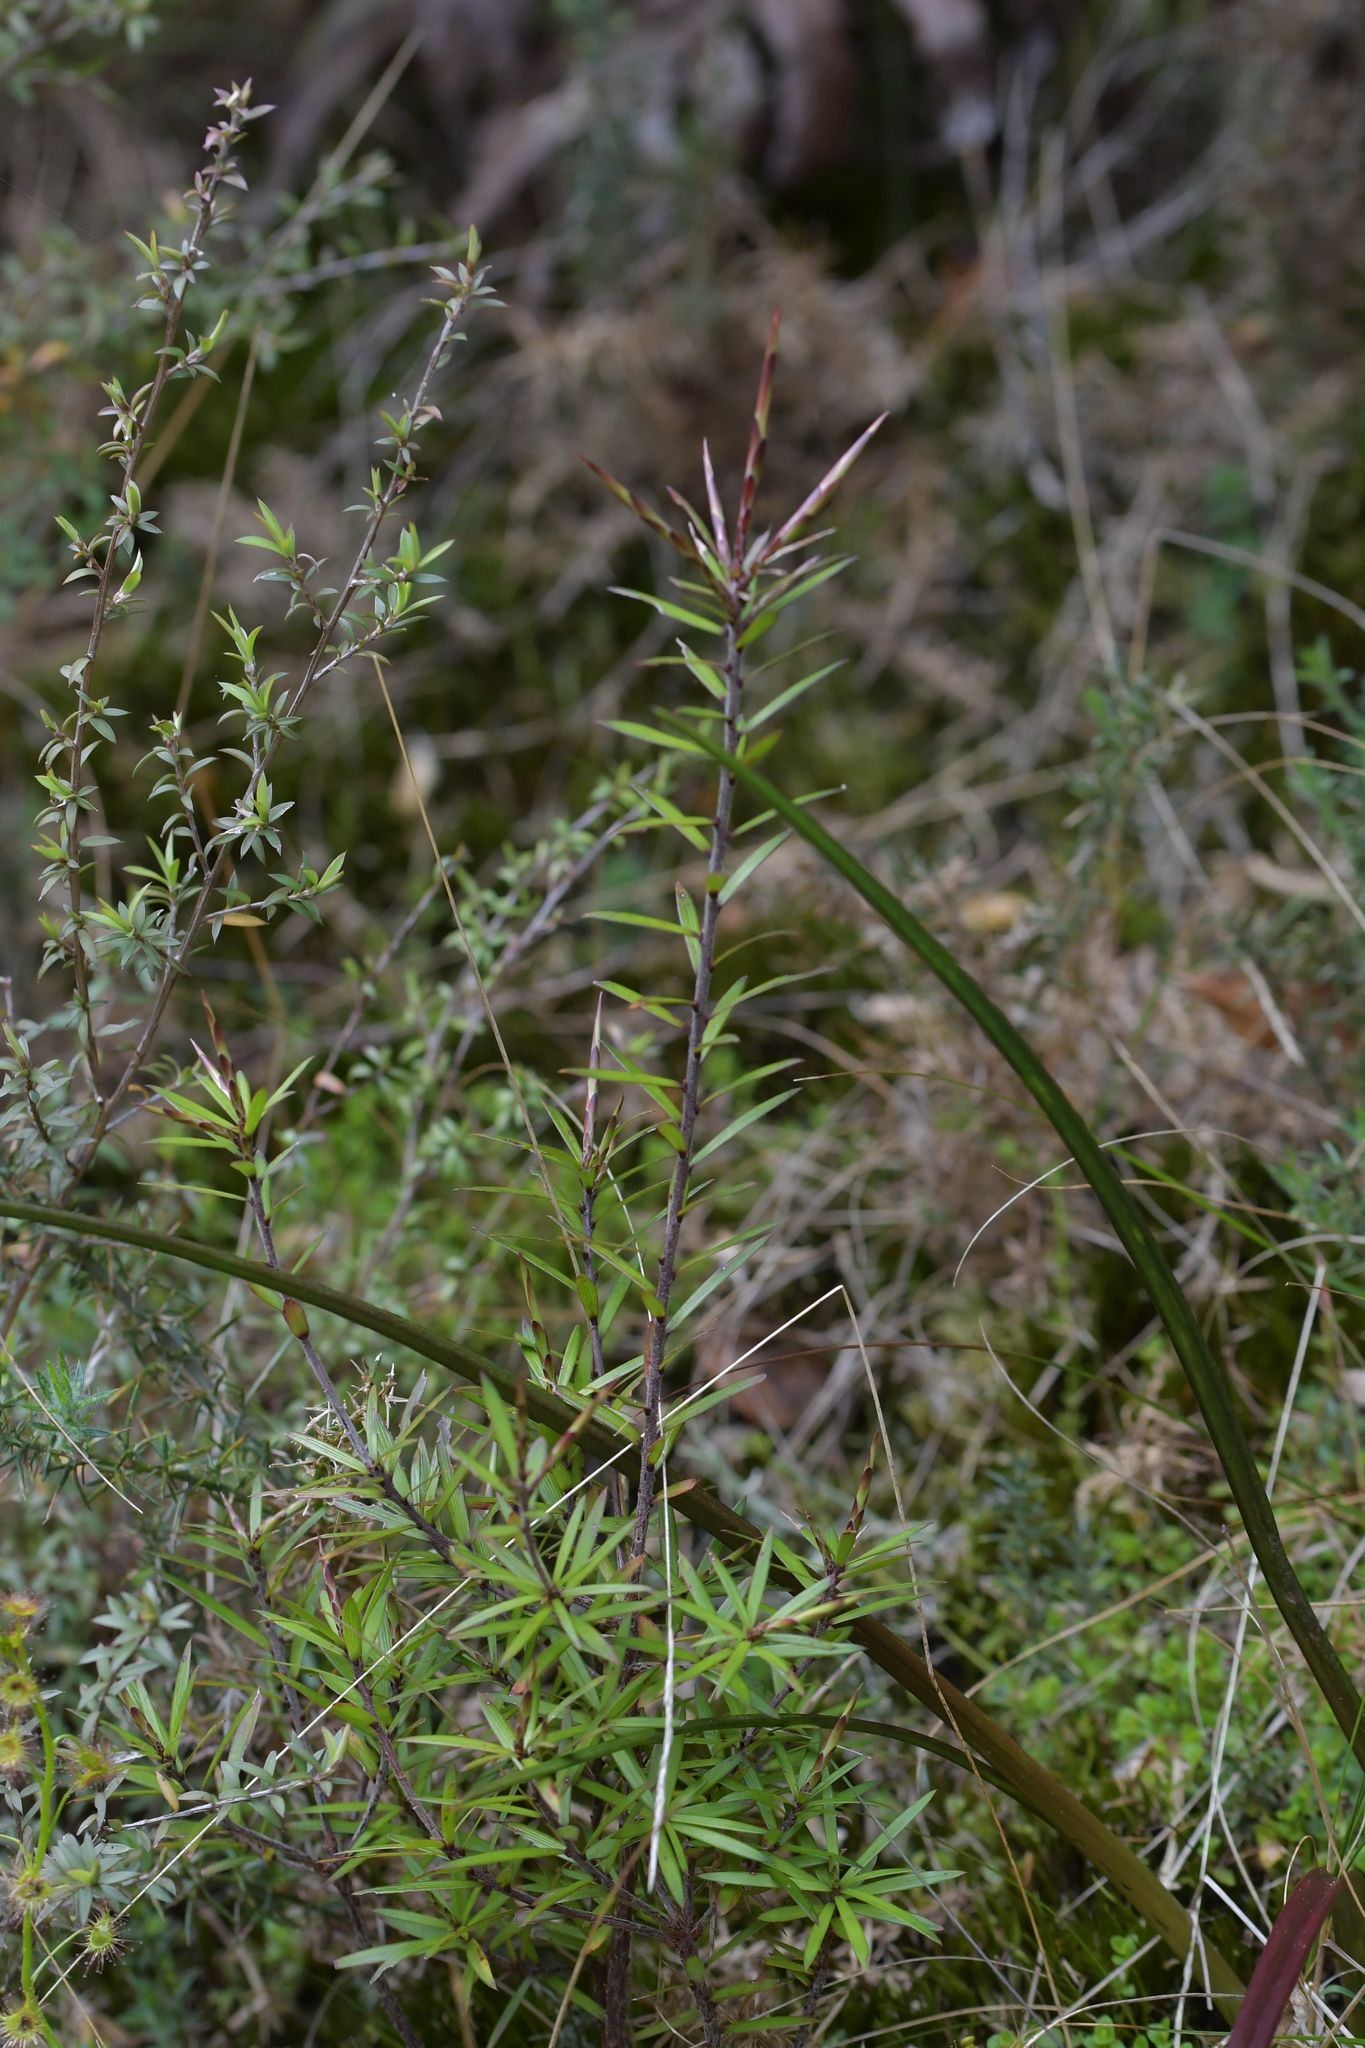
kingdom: Plantae
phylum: Tracheophyta
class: Magnoliopsida
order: Ericales
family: Ericaceae
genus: Leucopogon
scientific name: Leucopogon fasciculatus
